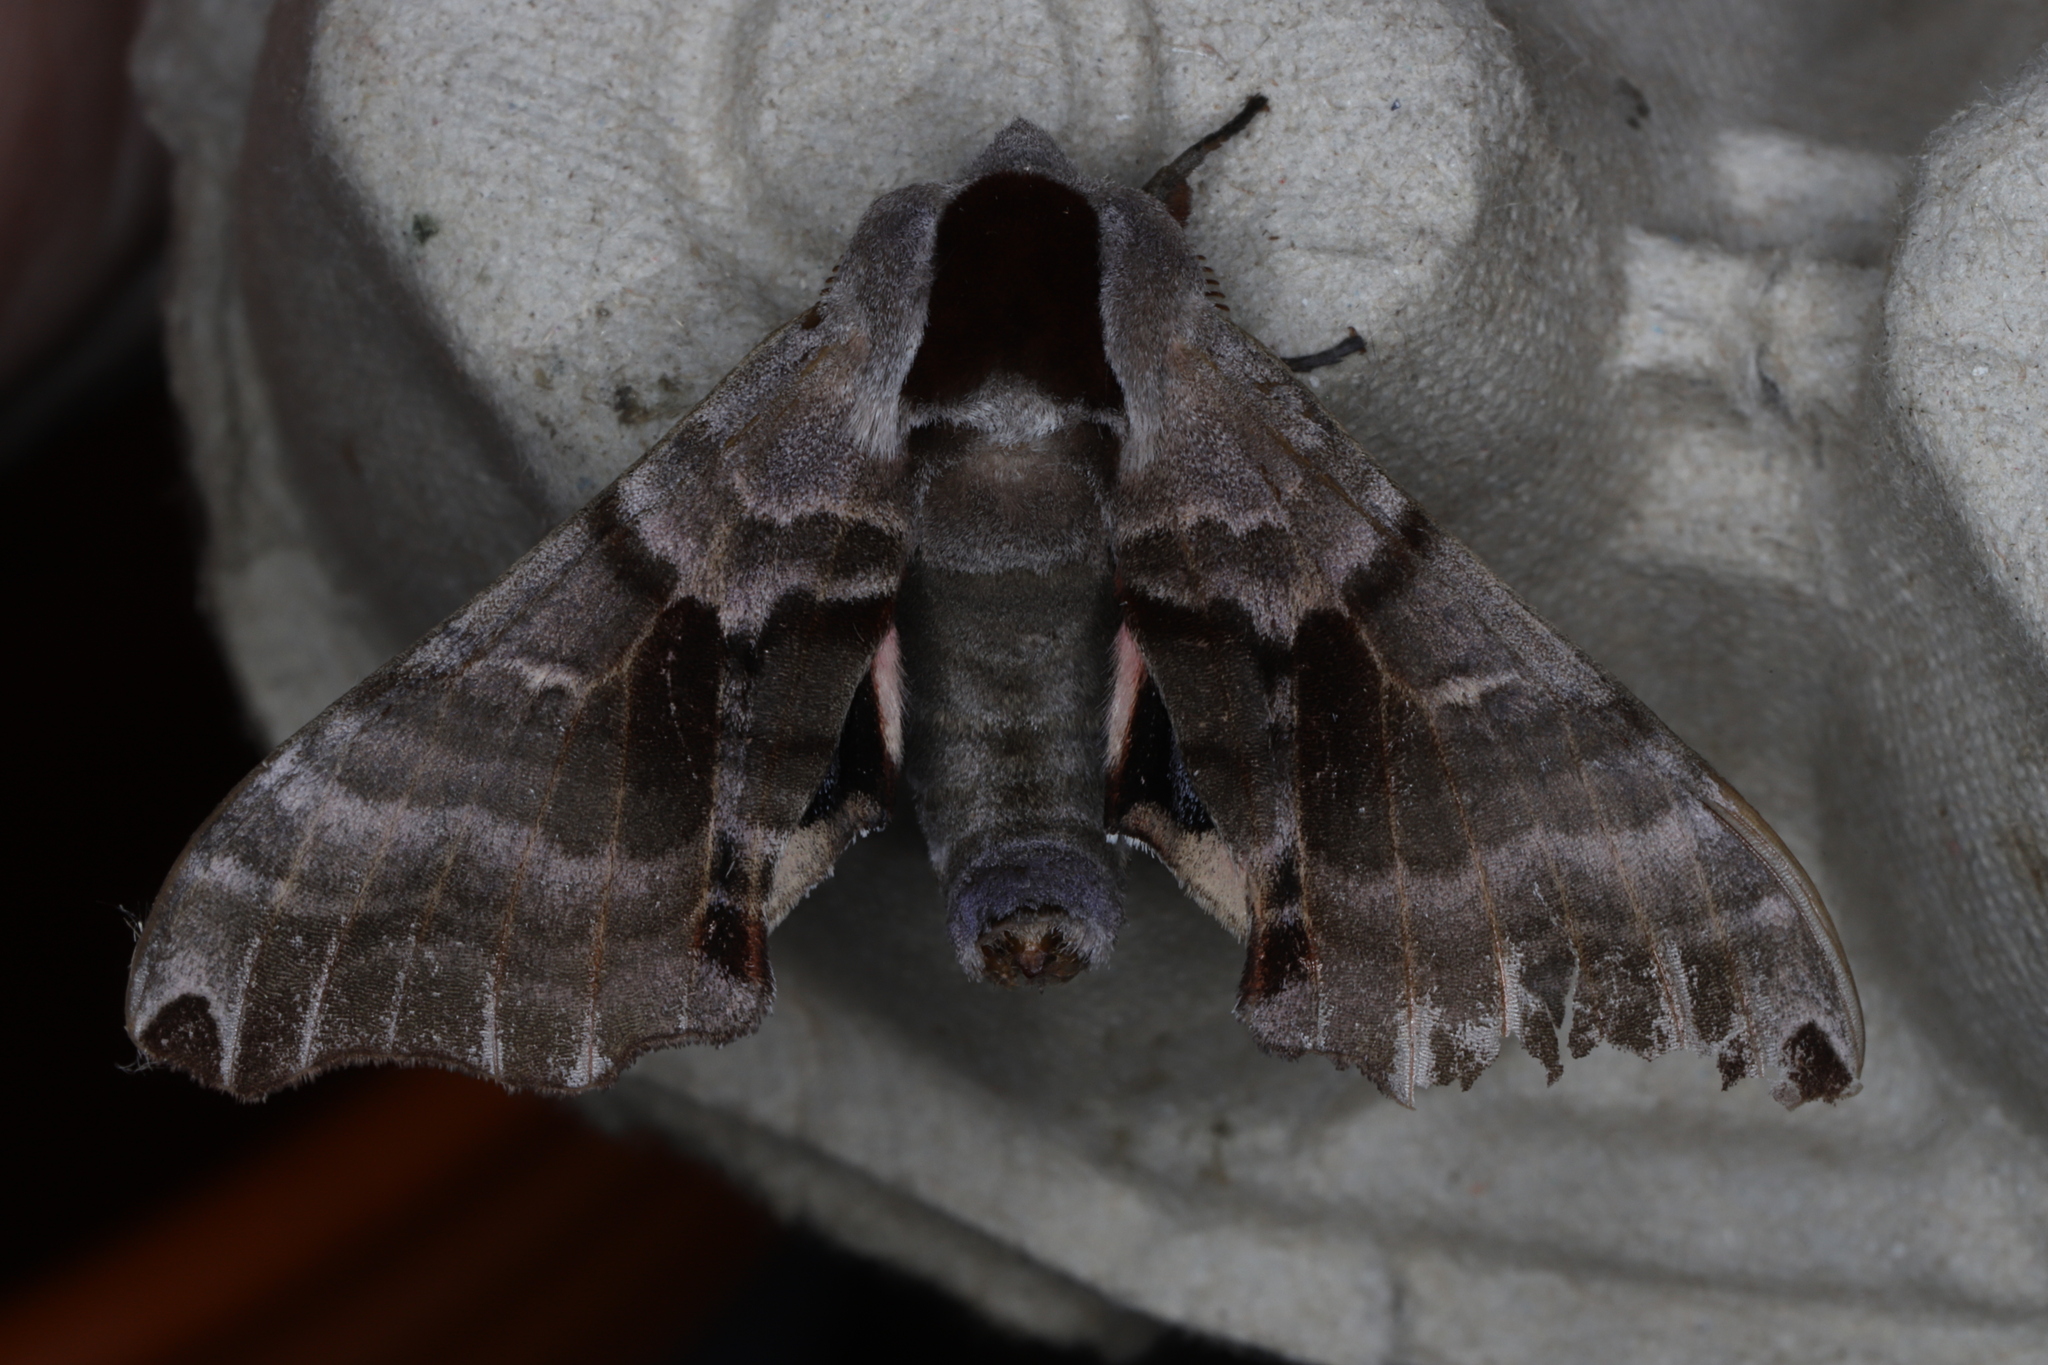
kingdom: Animalia
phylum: Arthropoda
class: Insecta
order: Lepidoptera
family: Sphingidae
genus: Smerinthus
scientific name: Smerinthus jamaicensis
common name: Twin spotted sphinx
